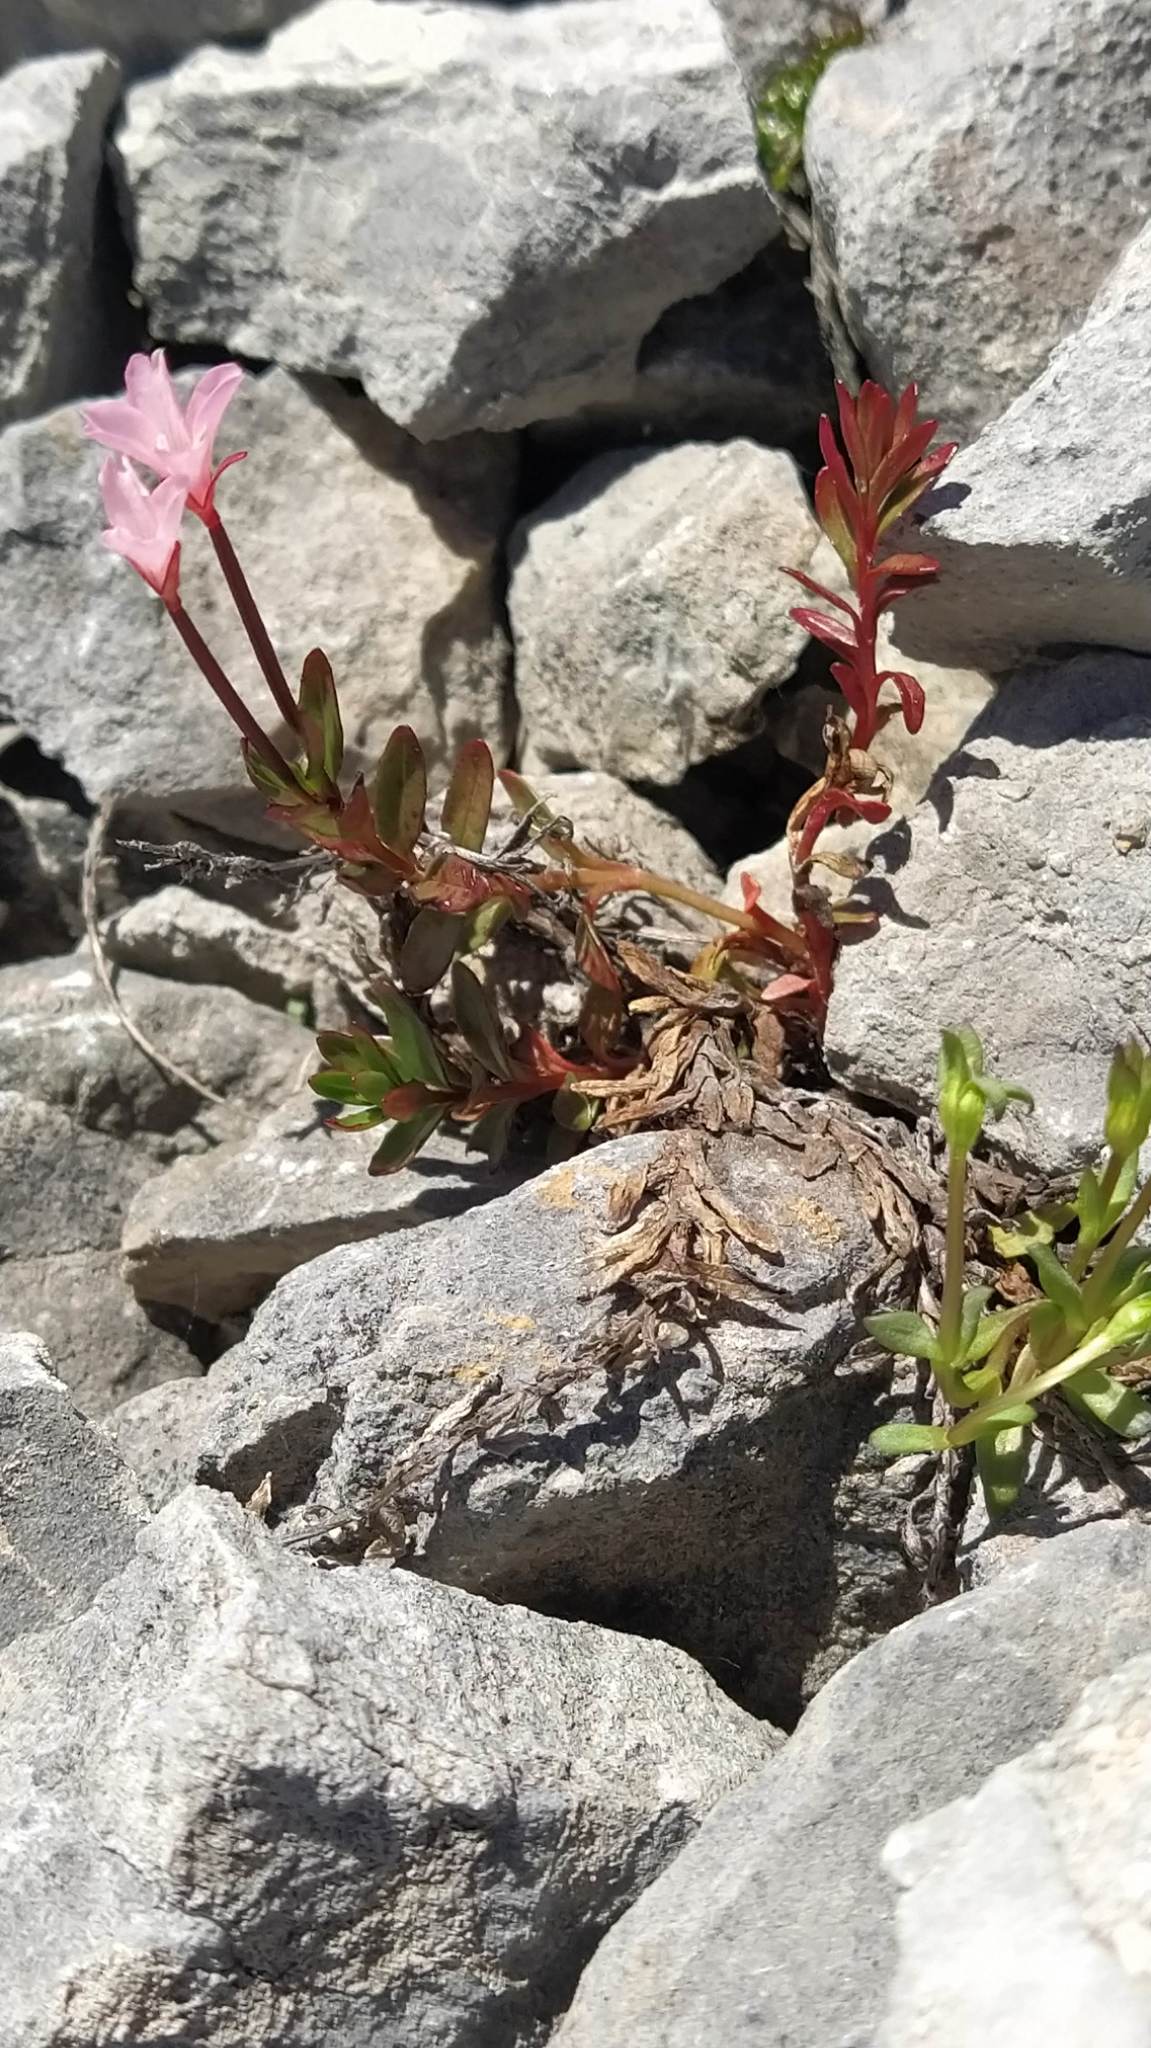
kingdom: Plantae
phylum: Tracheophyta
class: Magnoliopsida
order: Myrtales
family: Onagraceae
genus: Epilobium
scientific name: Epilobium glabellum
